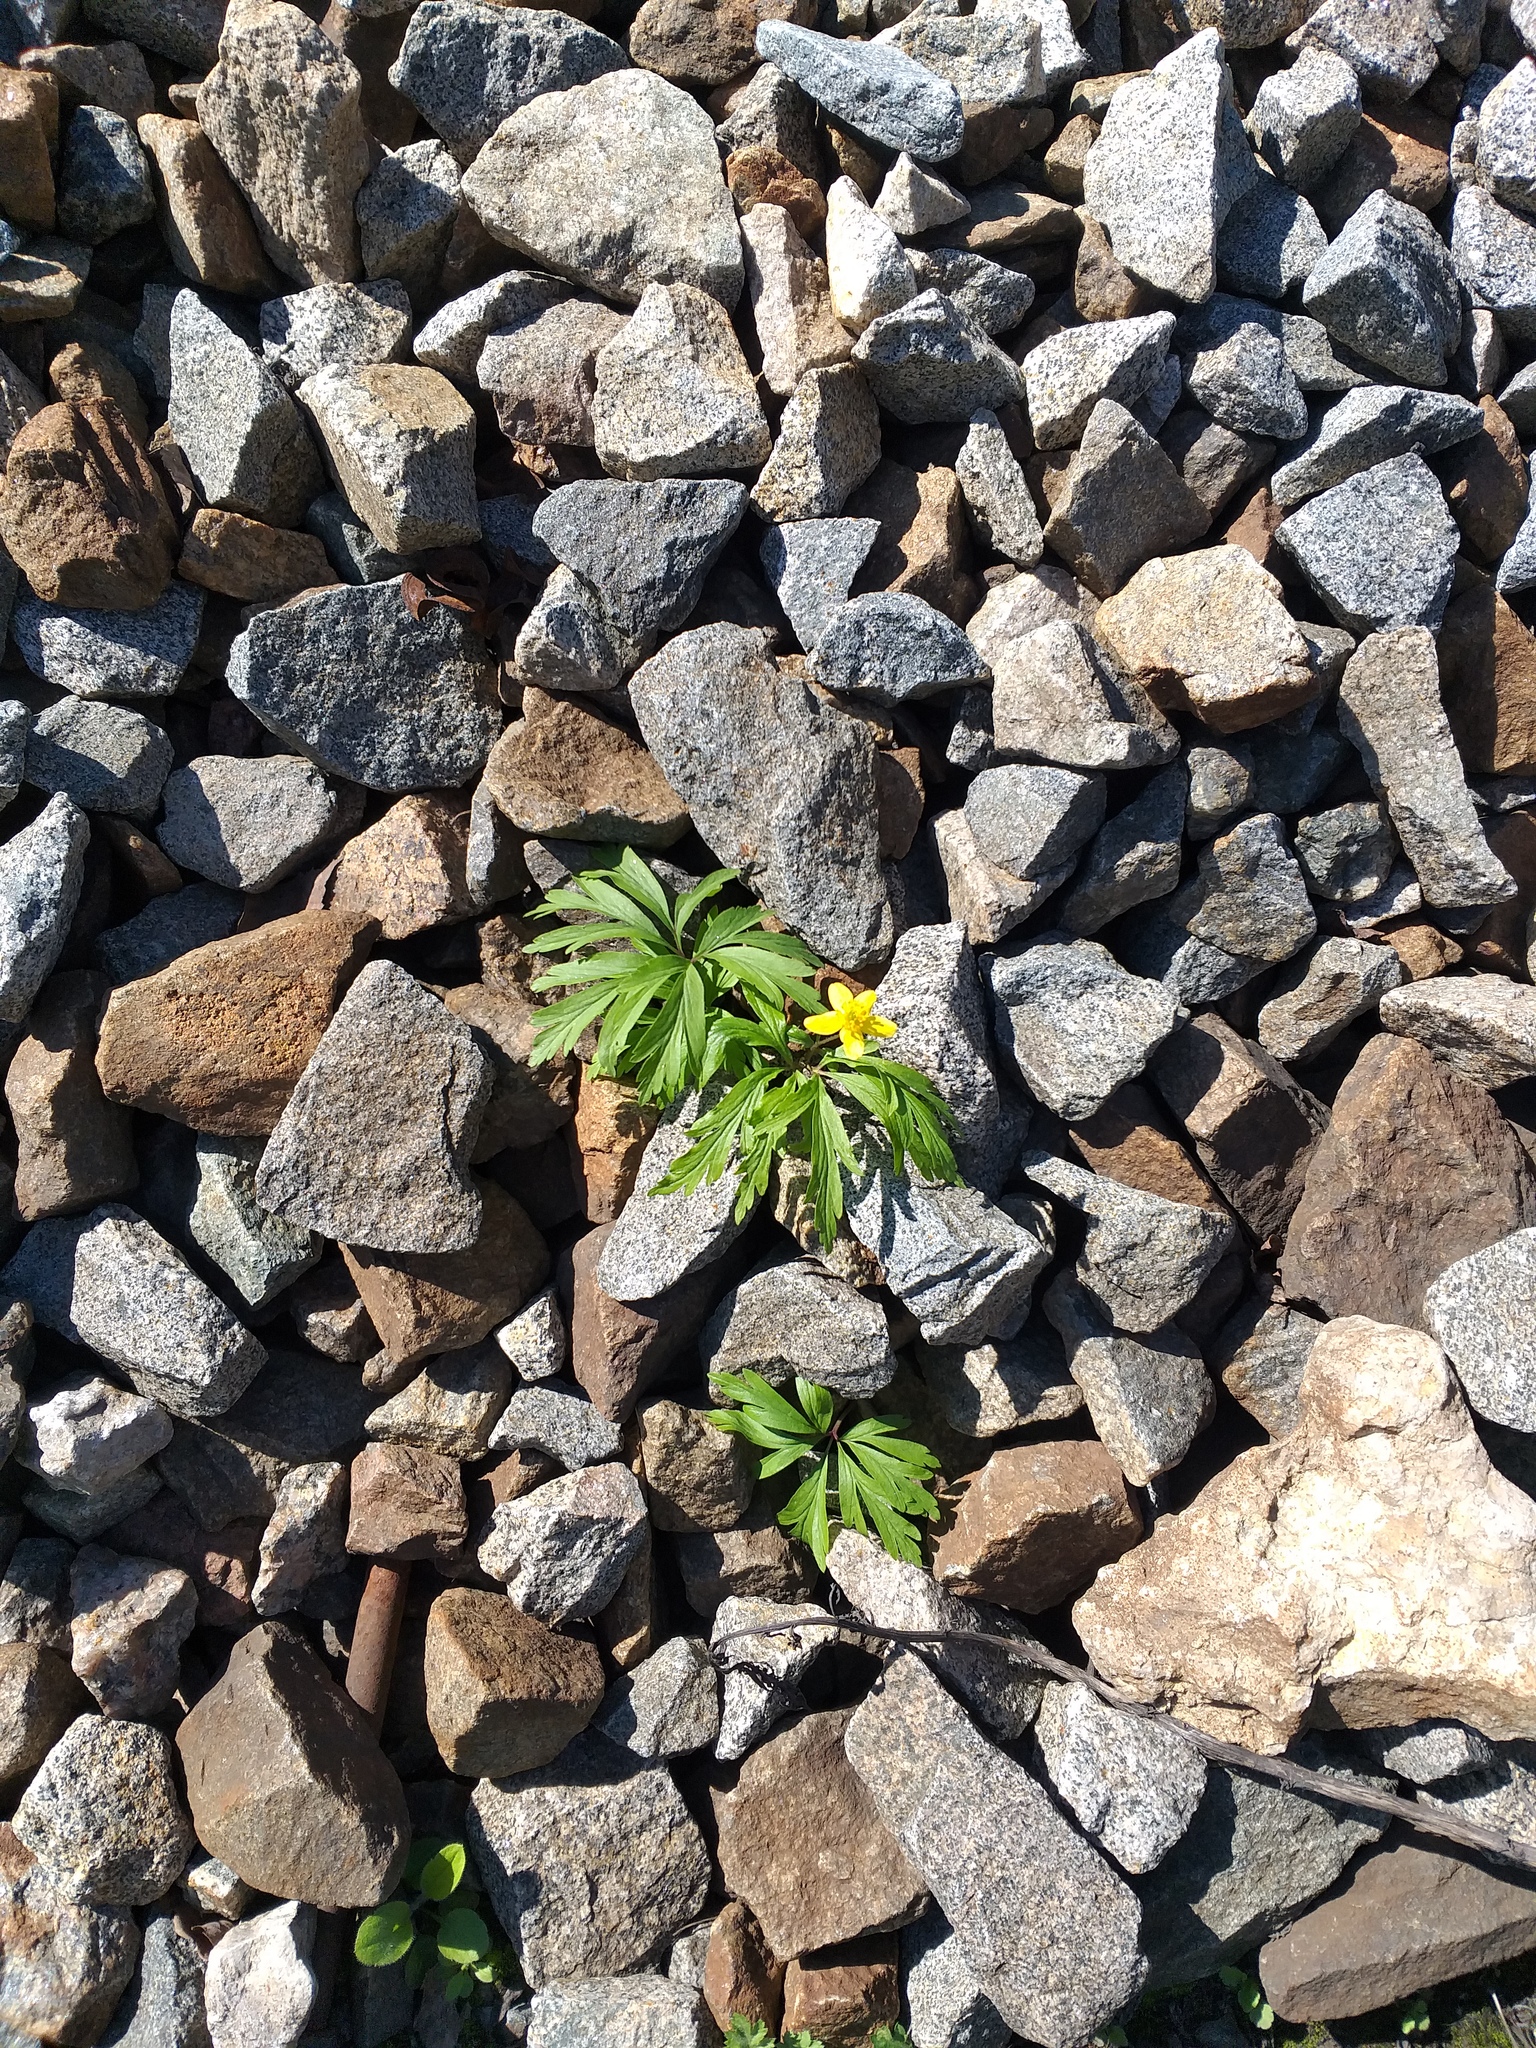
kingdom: Plantae
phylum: Tracheophyta
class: Magnoliopsida
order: Ranunculales
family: Ranunculaceae
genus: Anemone
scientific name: Anemone ranunculoides
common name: Yellow anemone
